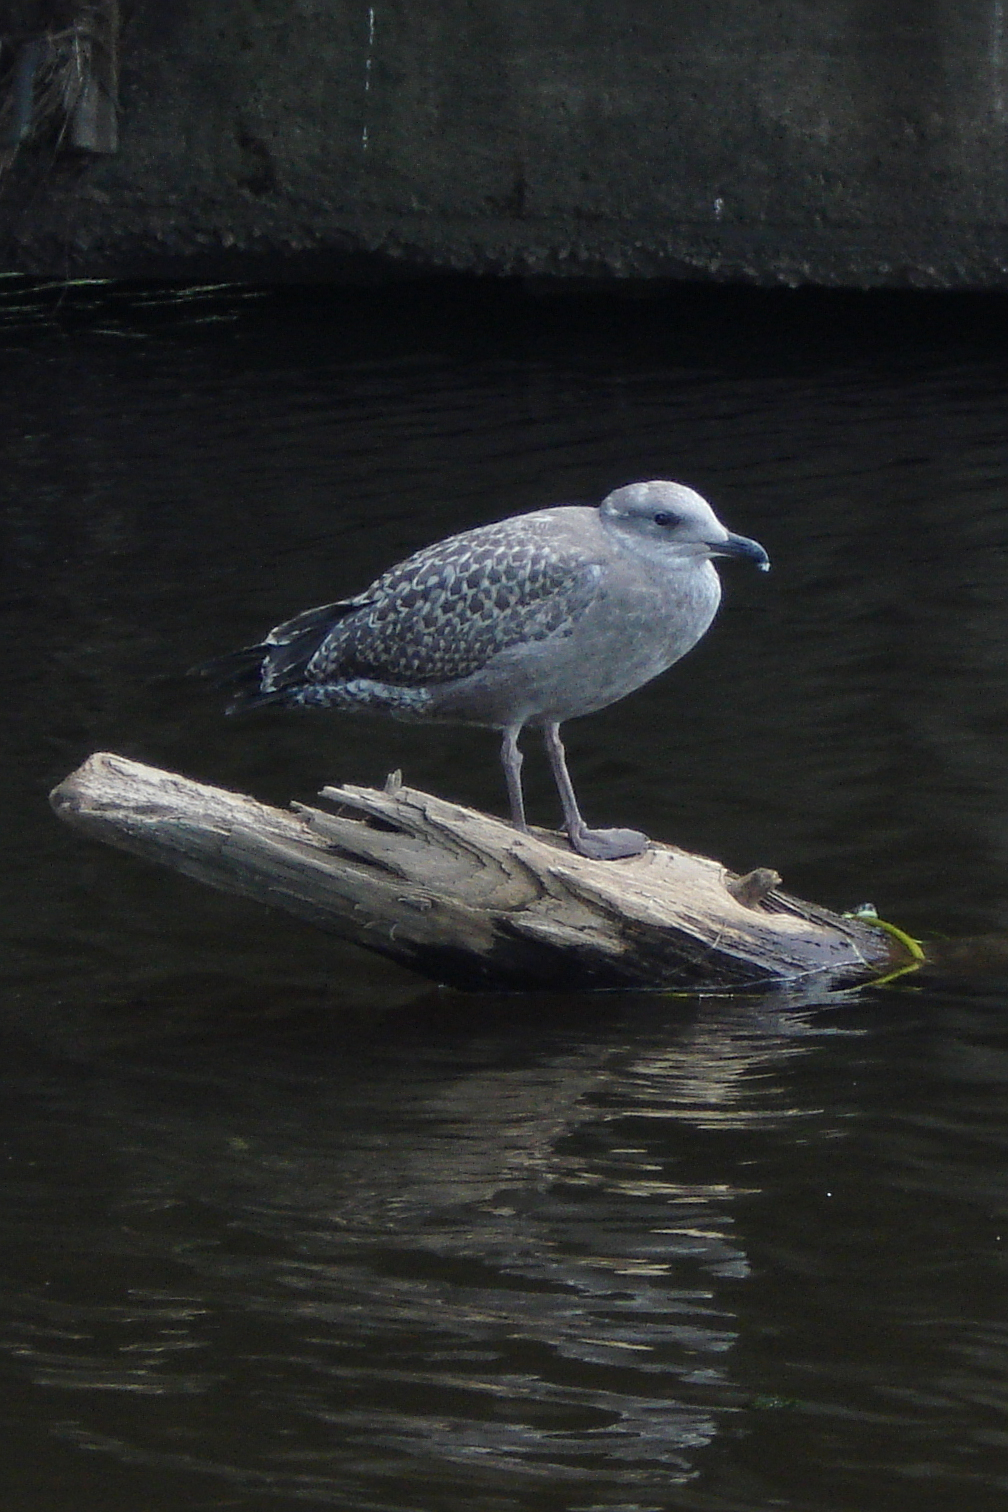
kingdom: Animalia
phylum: Chordata
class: Aves
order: Charadriiformes
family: Laridae
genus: Larus
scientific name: Larus argentatus
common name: Herring gull
